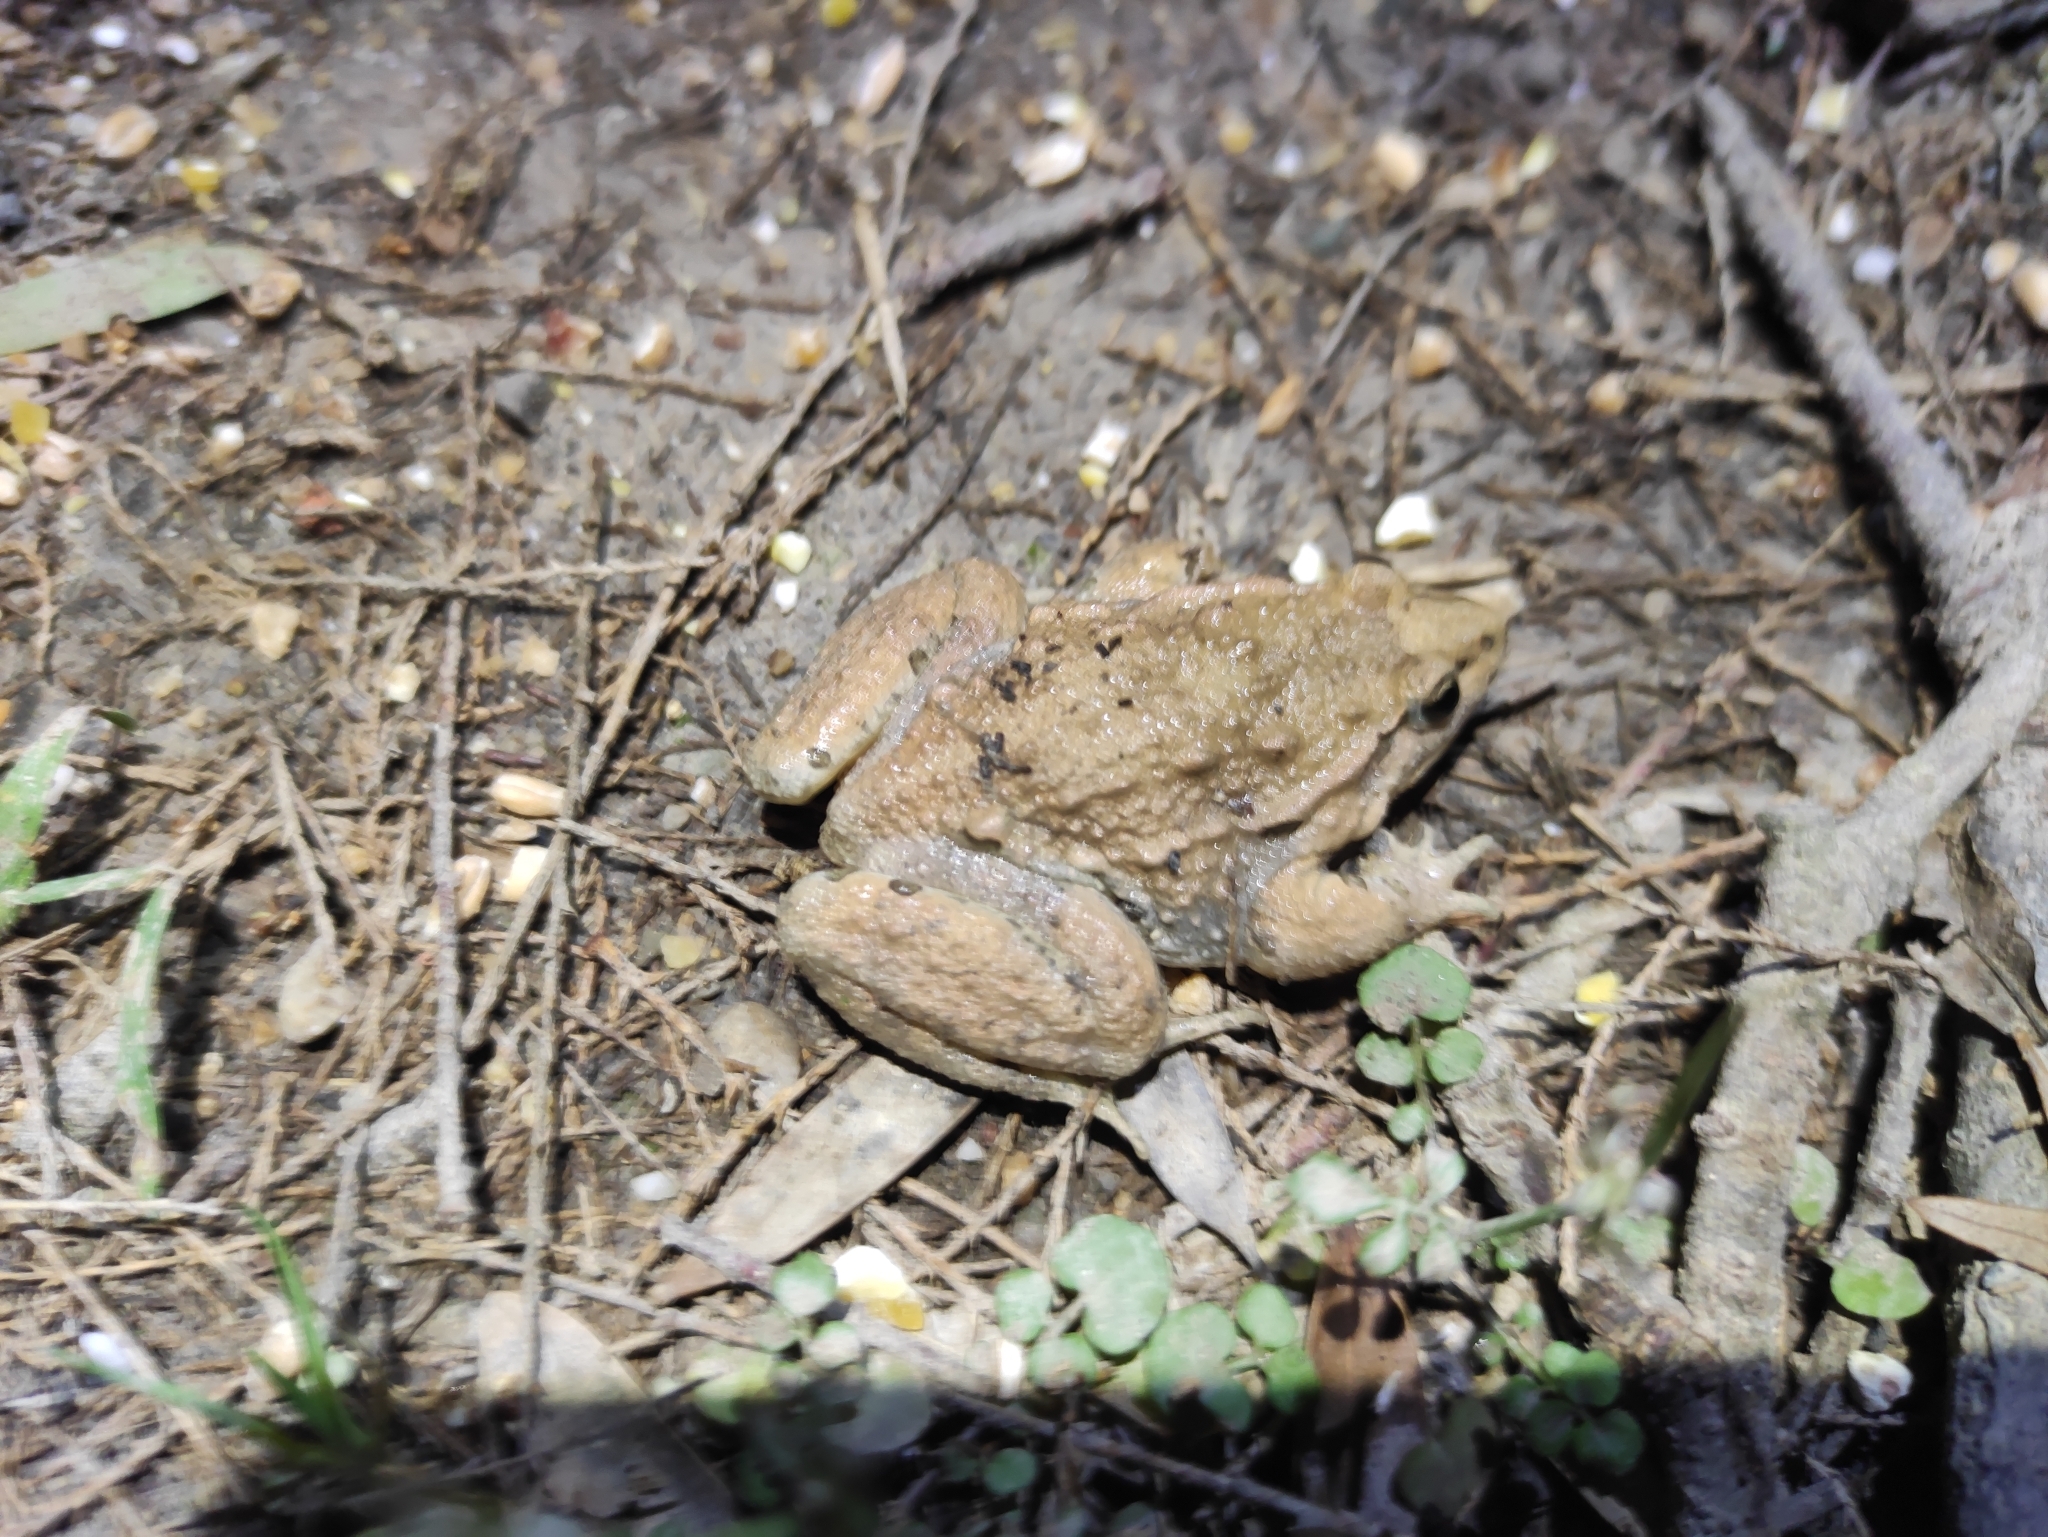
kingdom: Animalia
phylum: Chordata
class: Amphibia
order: Anura
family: Alytidae
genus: Discoglossus
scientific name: Discoglossus pictus
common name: Painted frog
